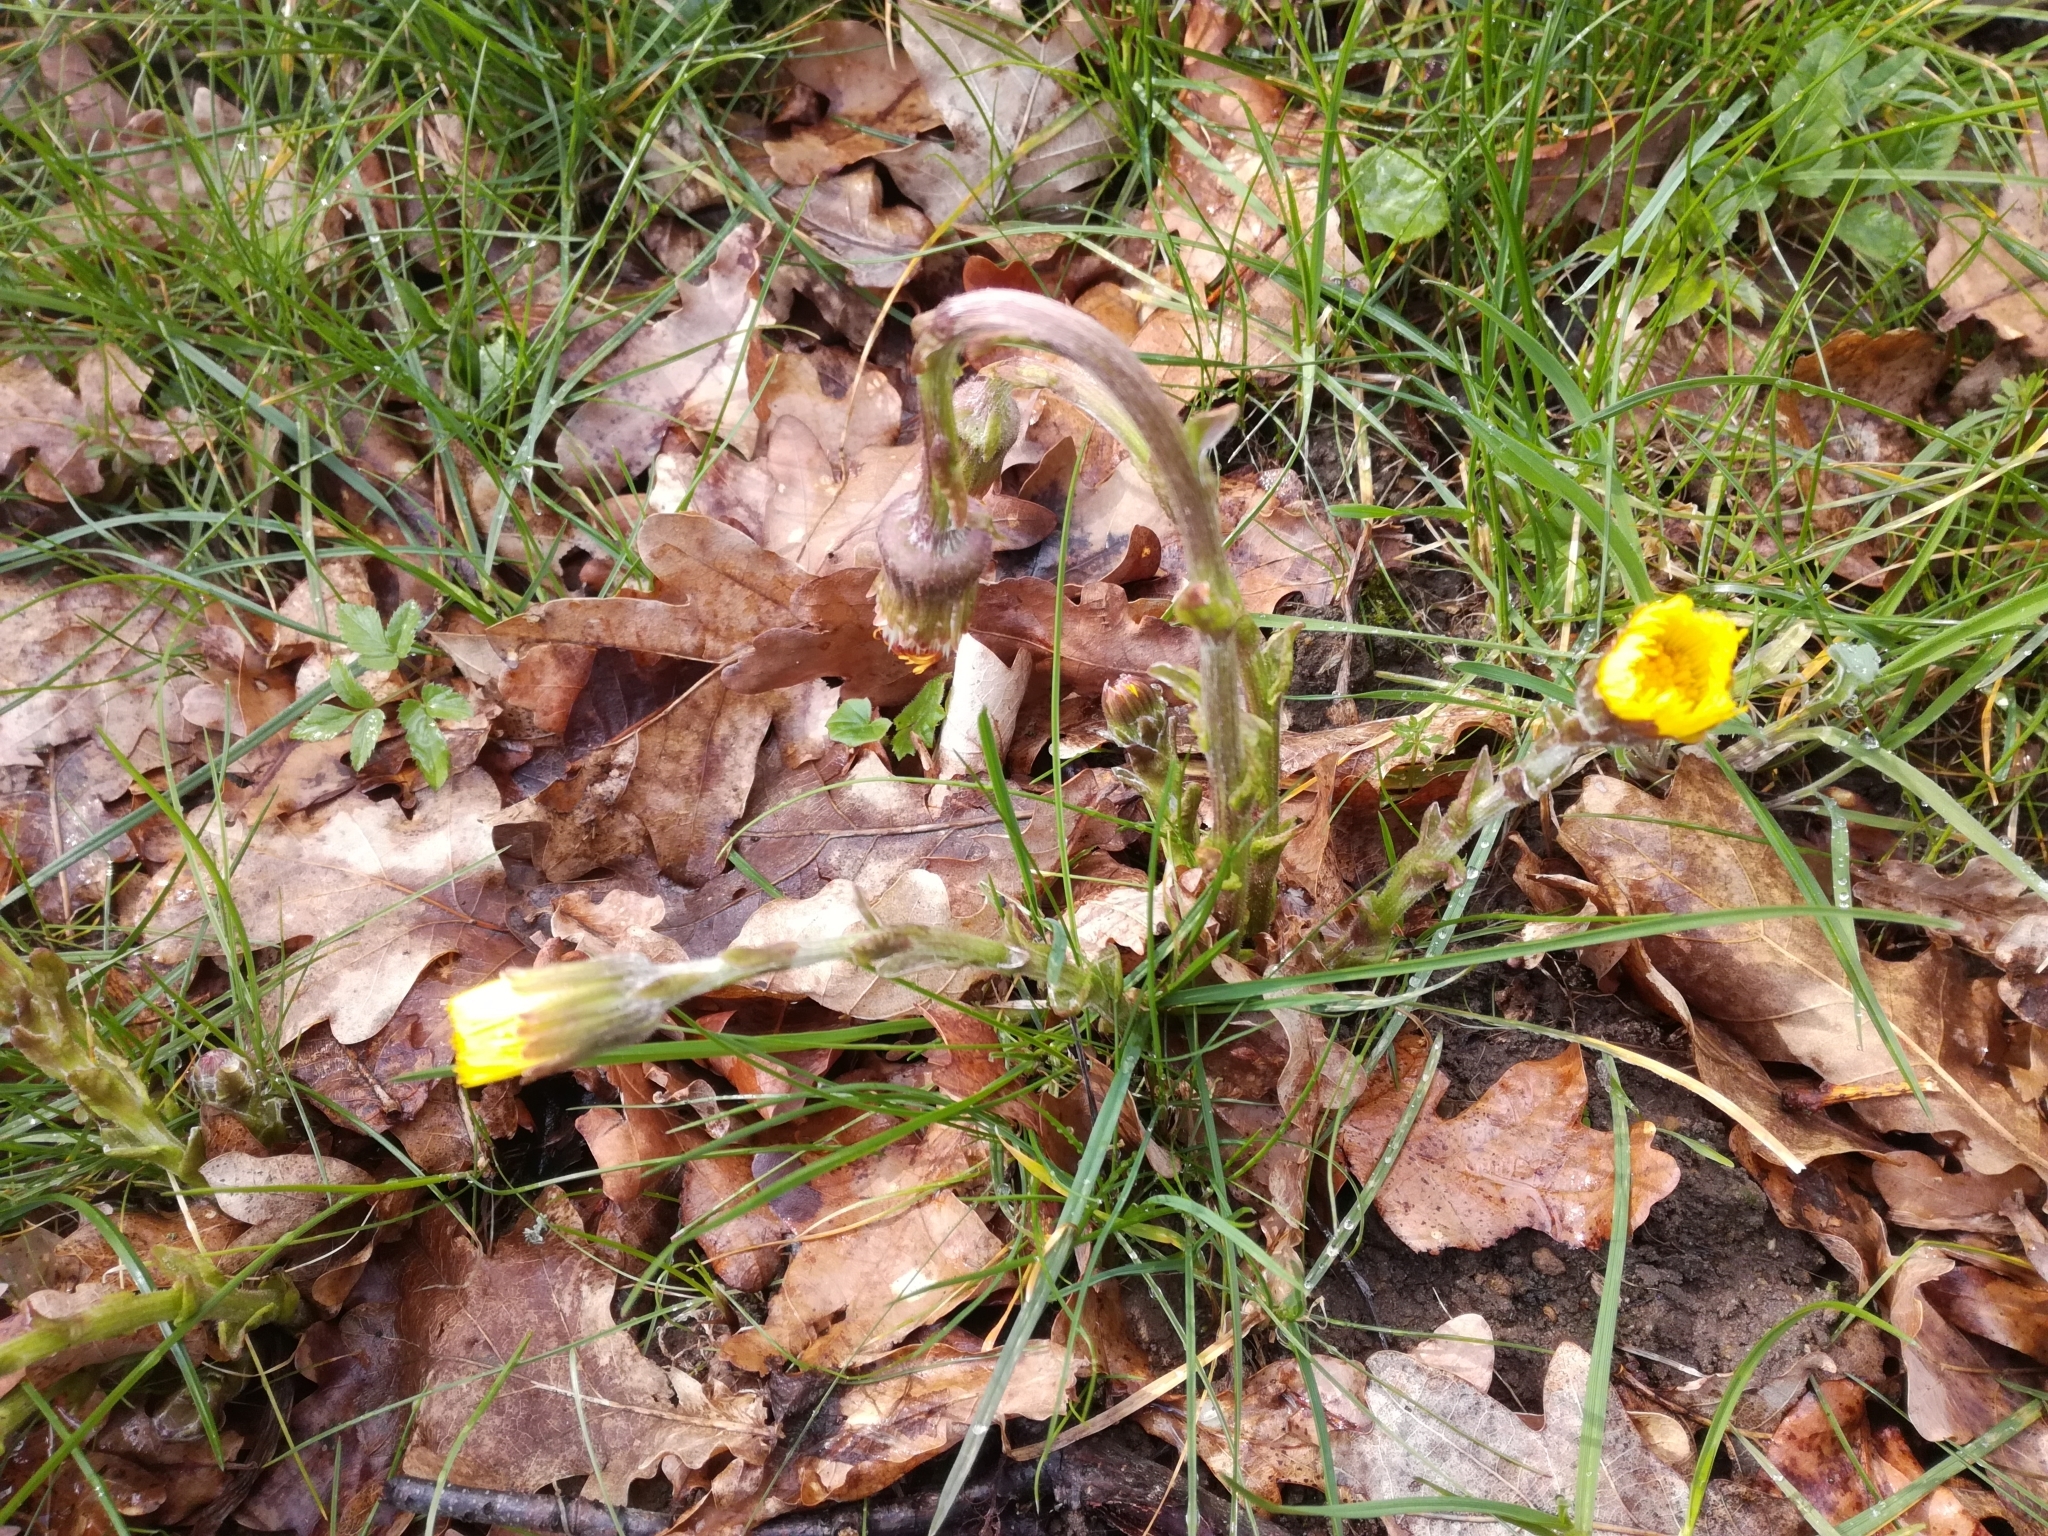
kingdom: Plantae
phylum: Tracheophyta
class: Magnoliopsida
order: Asterales
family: Asteraceae
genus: Tussilago
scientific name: Tussilago farfara
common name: Coltsfoot
